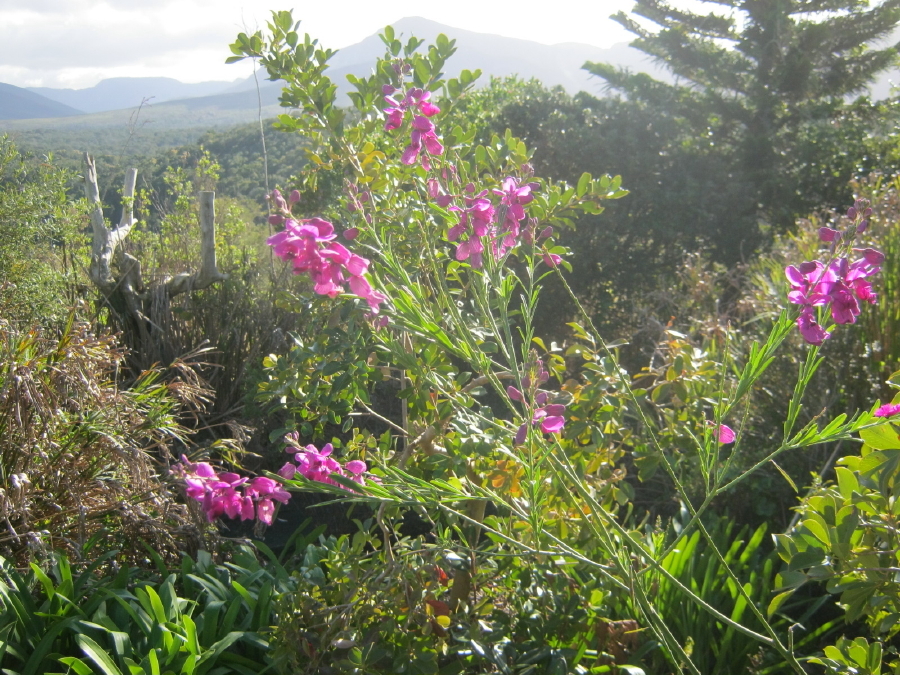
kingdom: Plantae
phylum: Tracheophyta
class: Magnoliopsida
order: Fabales
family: Polygalaceae
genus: Polygala
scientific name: Polygala virgata
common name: Milkwort
